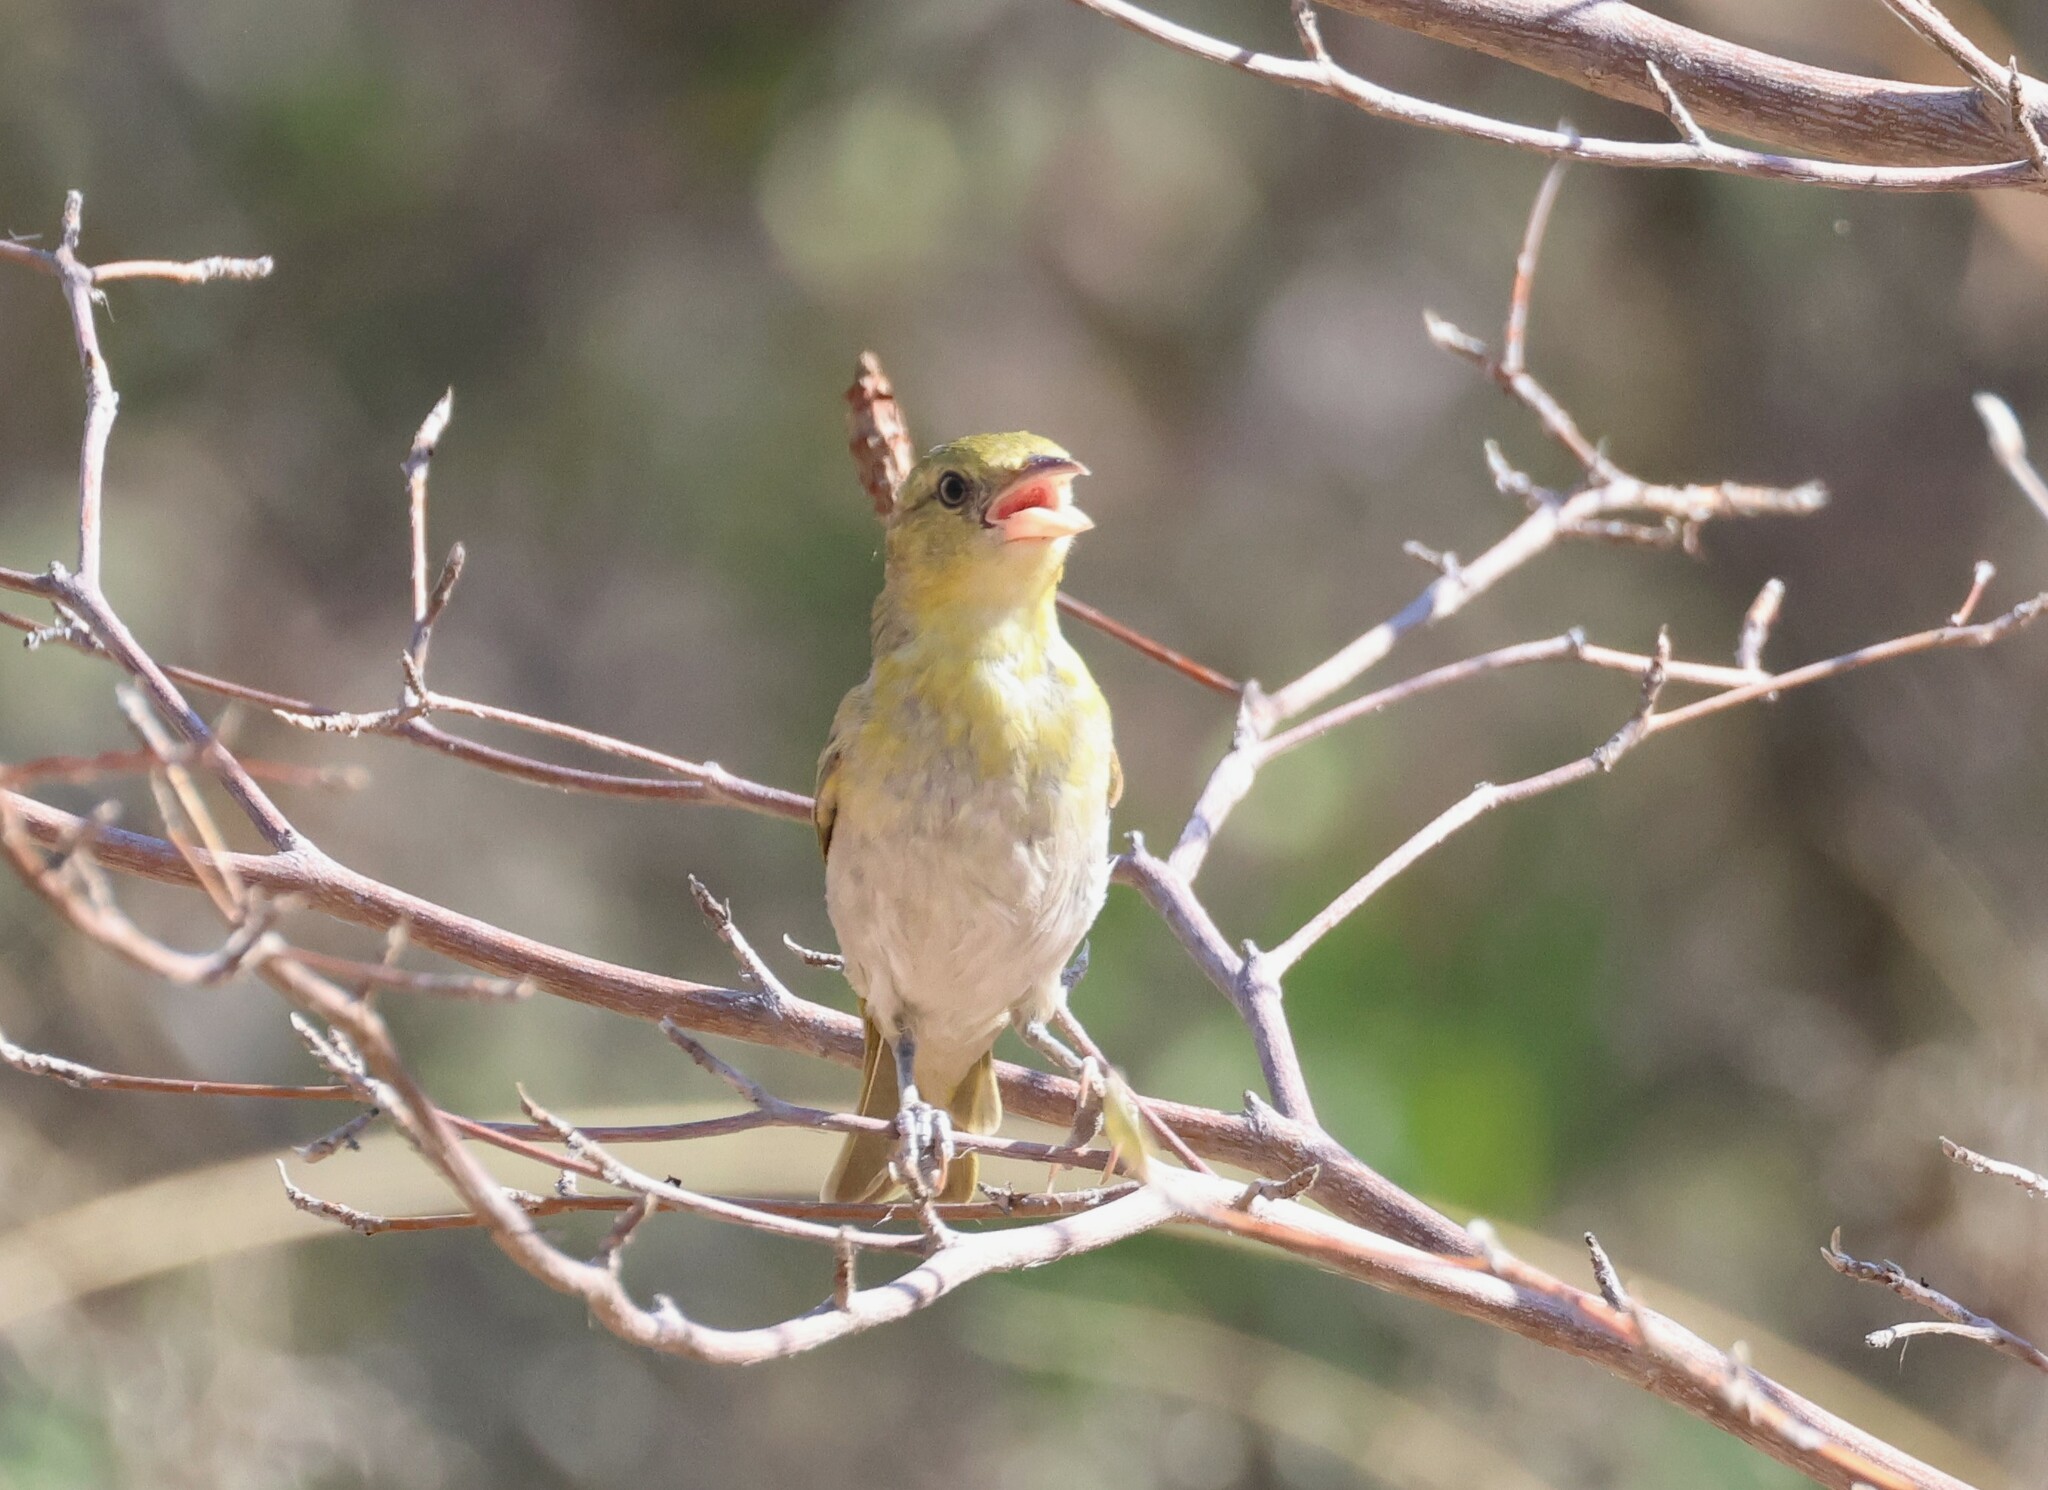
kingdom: Animalia
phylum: Chordata
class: Aves
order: Passeriformes
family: Ploceidae
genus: Ploceus
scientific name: Ploceus intermedius
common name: Lesser masked weaver
